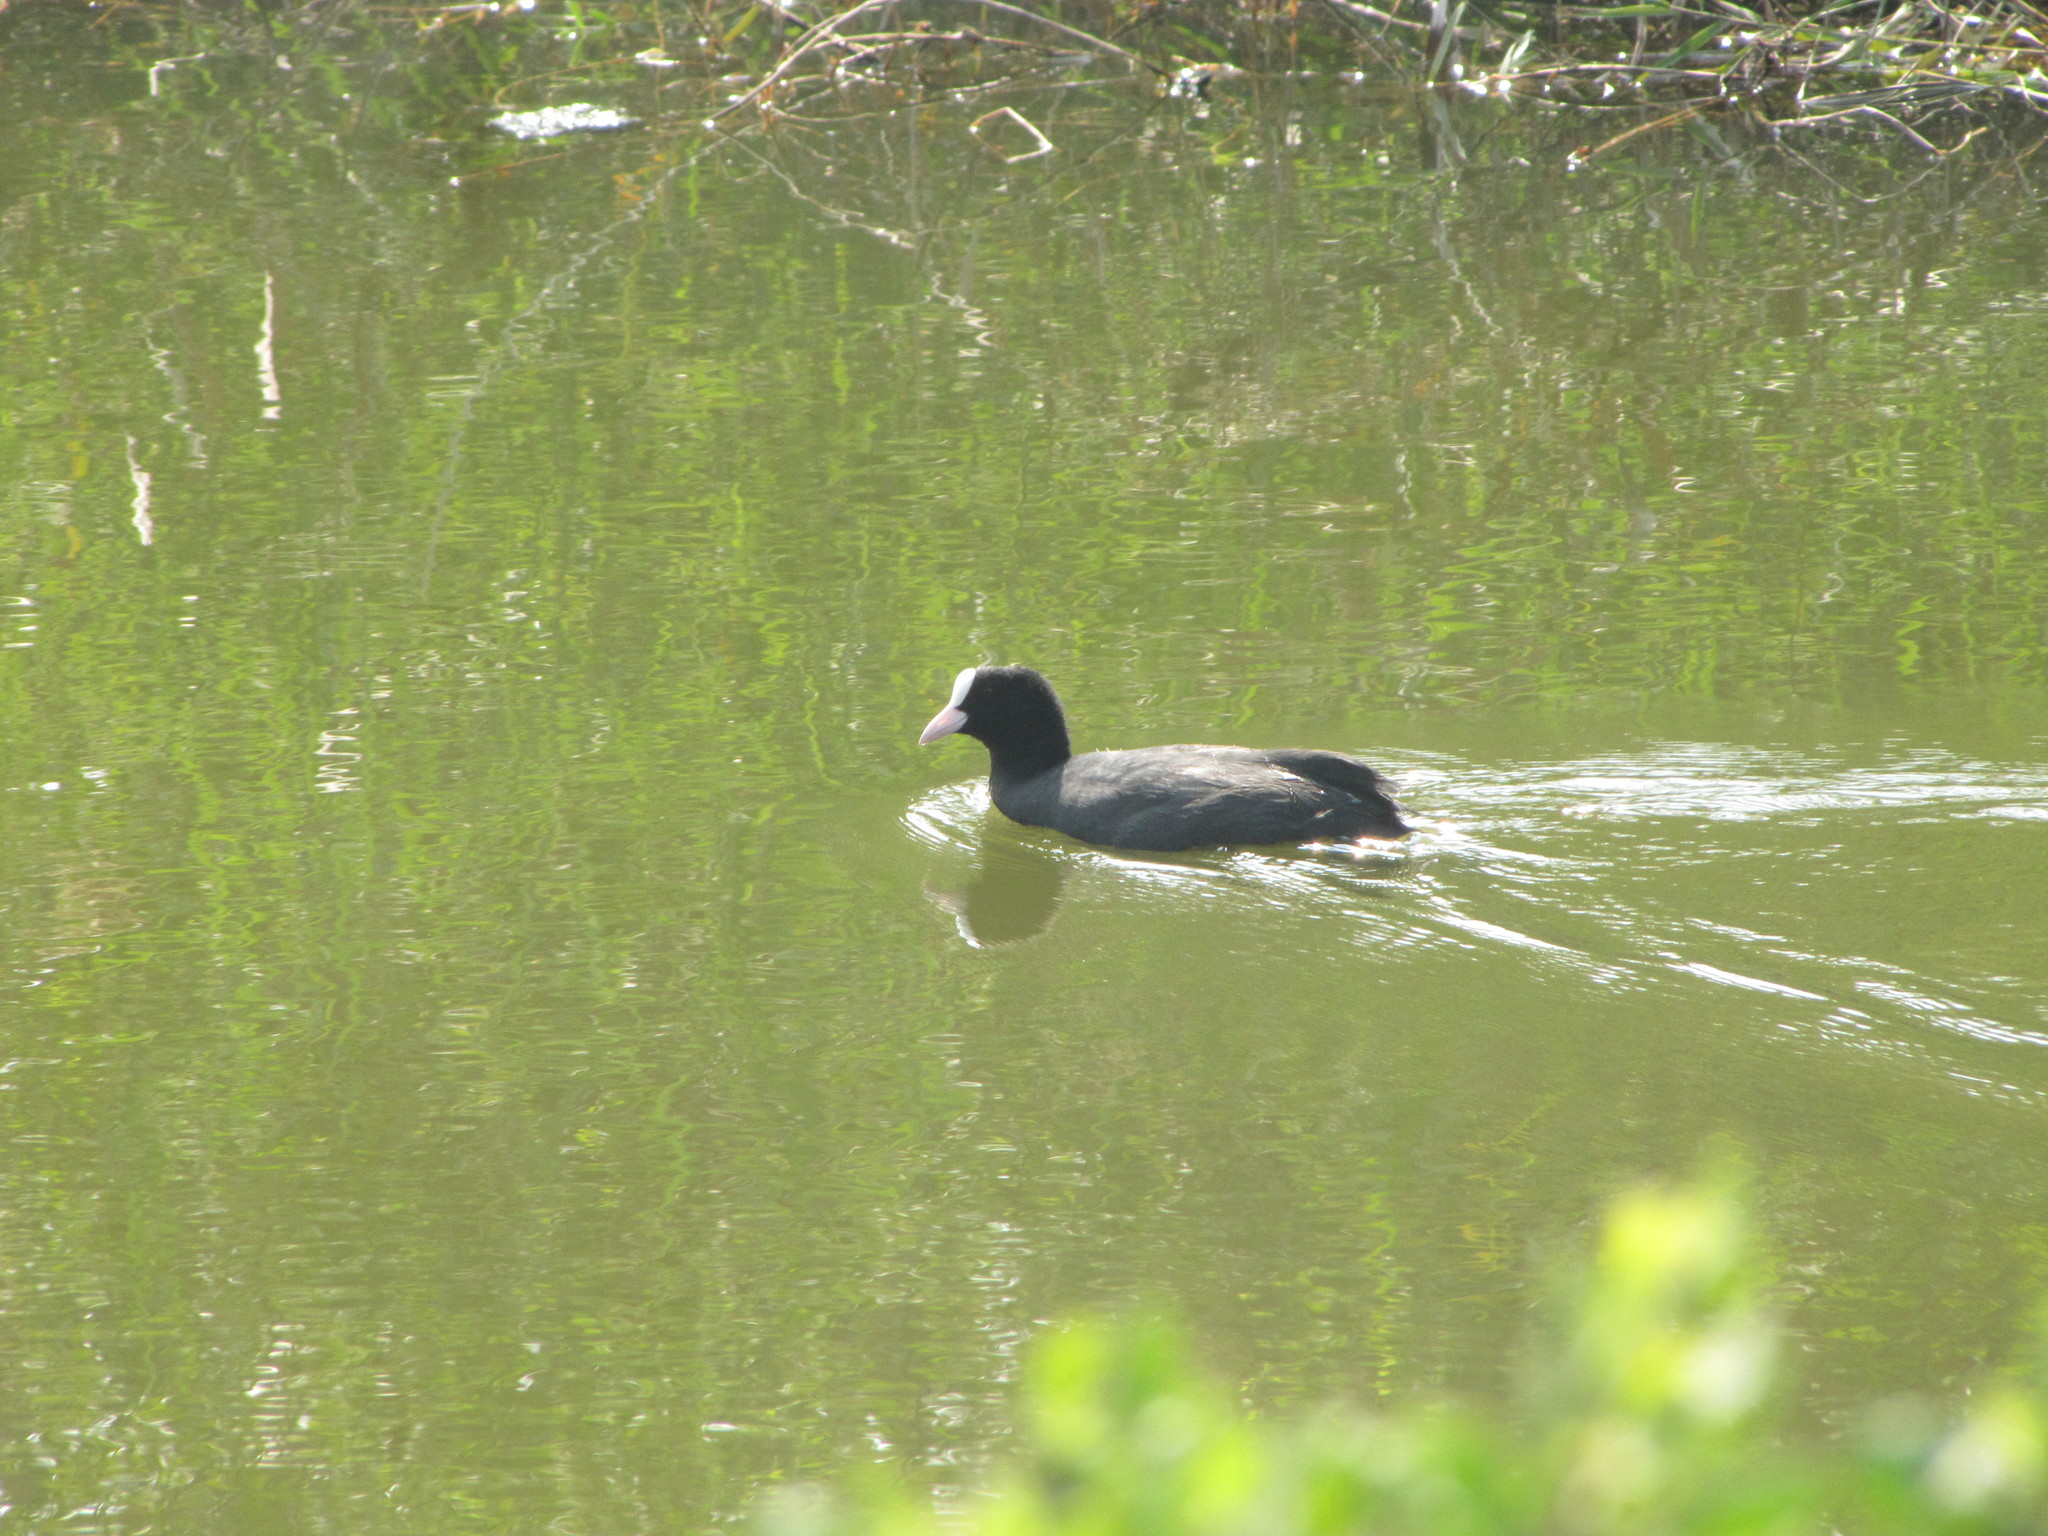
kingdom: Animalia
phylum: Chordata
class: Aves
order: Gruiformes
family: Rallidae
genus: Fulica
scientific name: Fulica atra
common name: Eurasian coot
